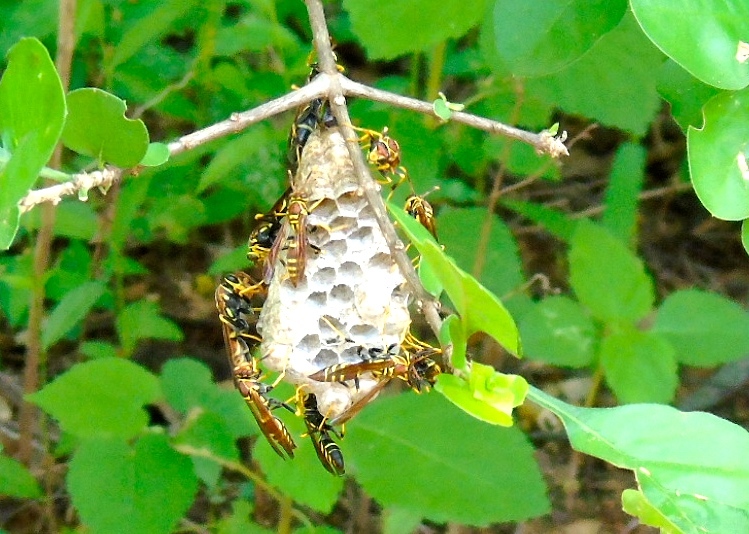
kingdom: Animalia
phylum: Arthropoda
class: Insecta
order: Hymenoptera
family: Eumenidae
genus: Polistes
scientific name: Polistes instabilis
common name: Unstable paper wasp
